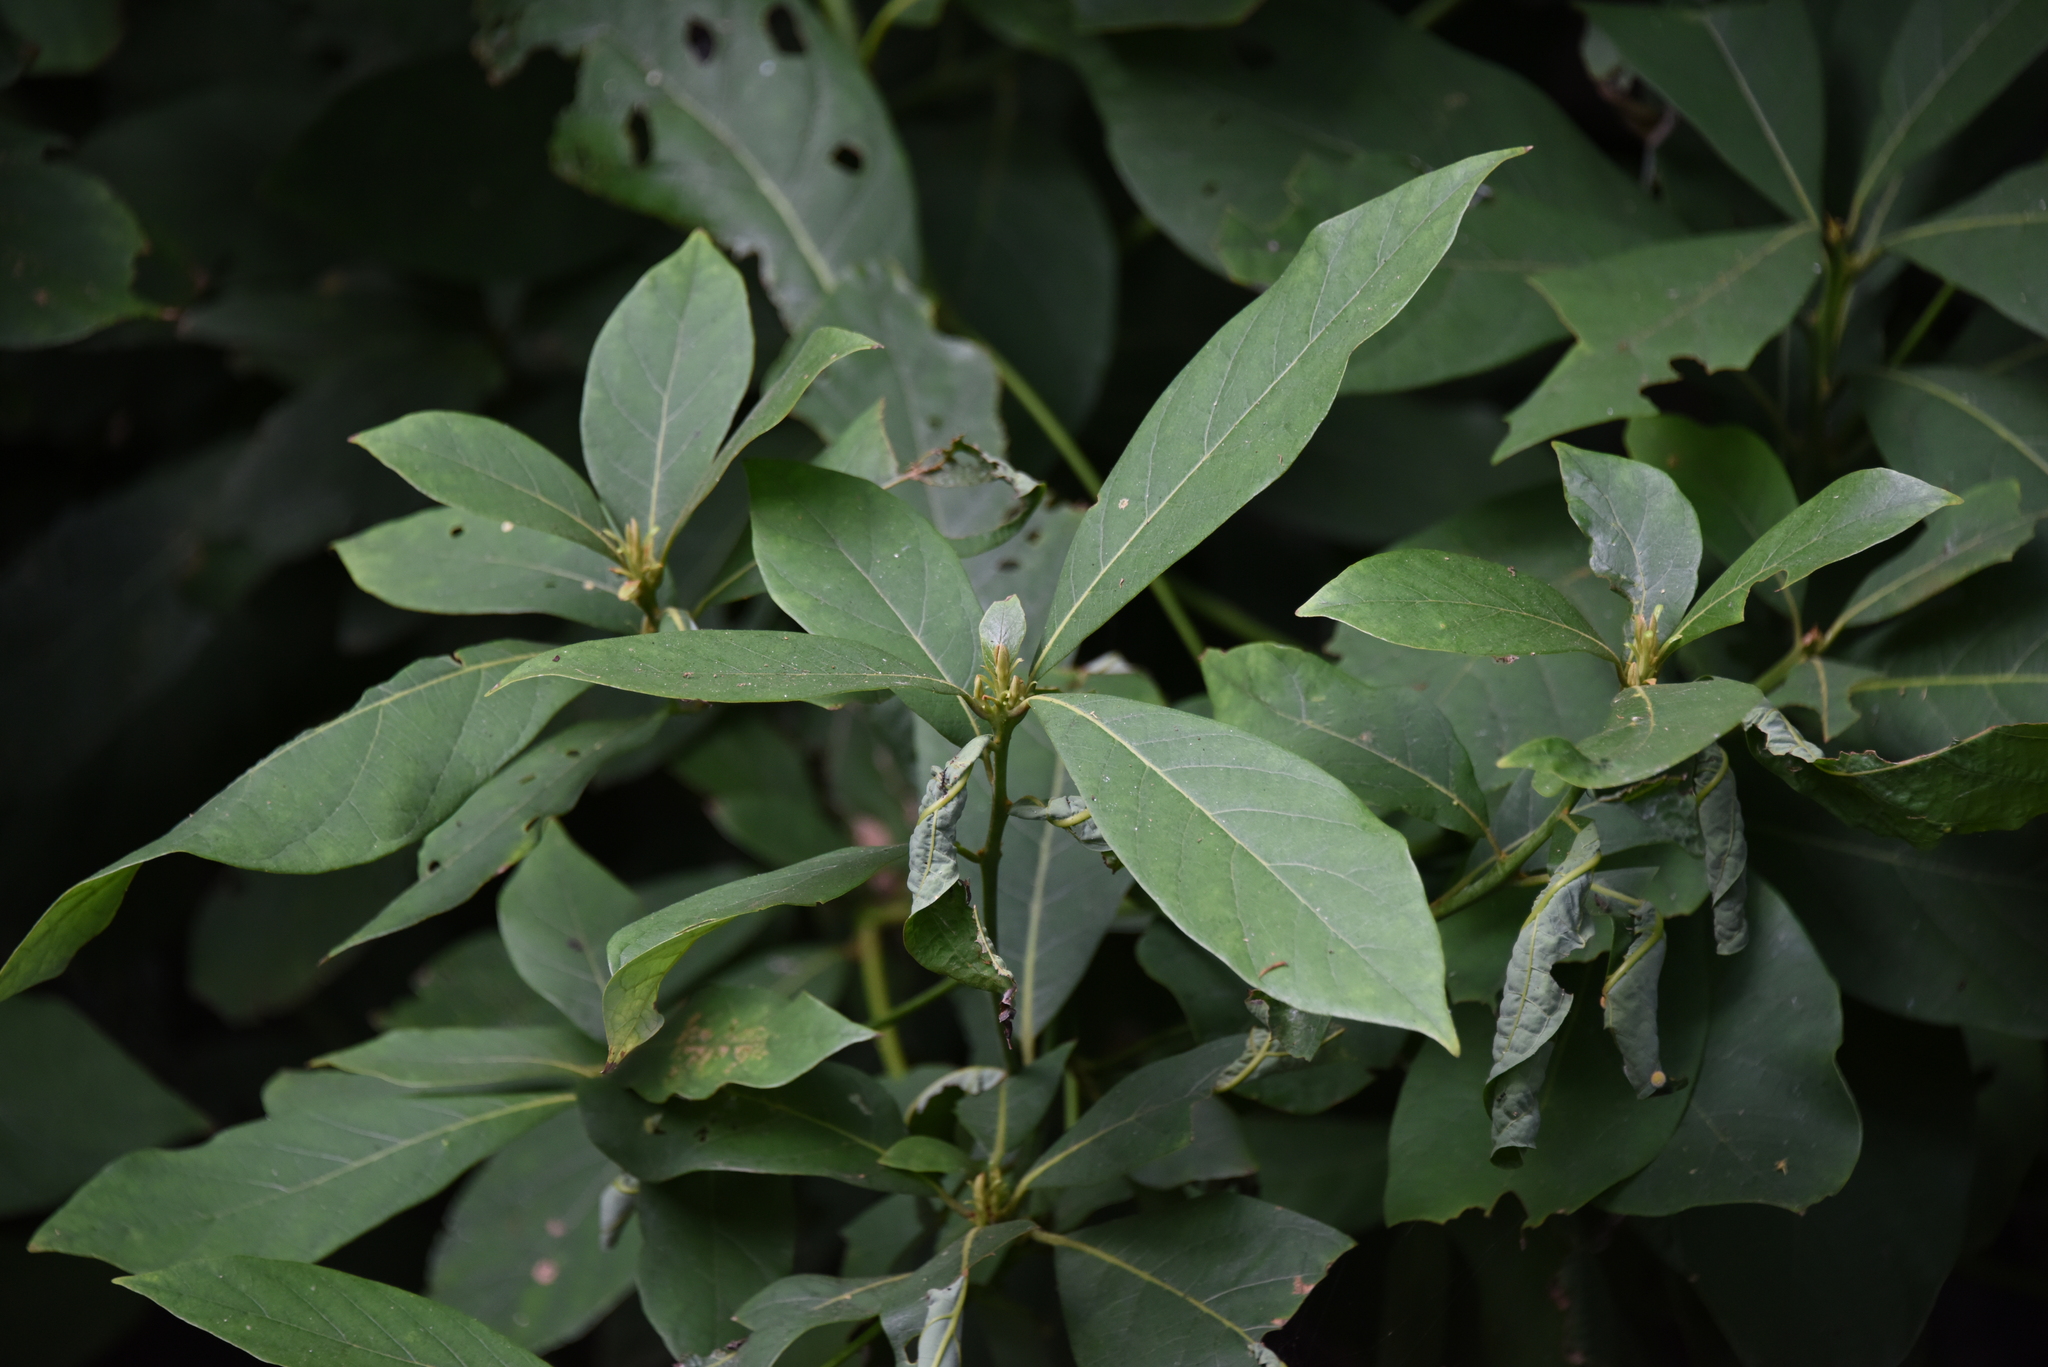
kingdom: Plantae
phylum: Tracheophyta
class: Magnoliopsida
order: Laurales
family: Lauraceae
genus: Machilus
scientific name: Machilus zuihoensis
